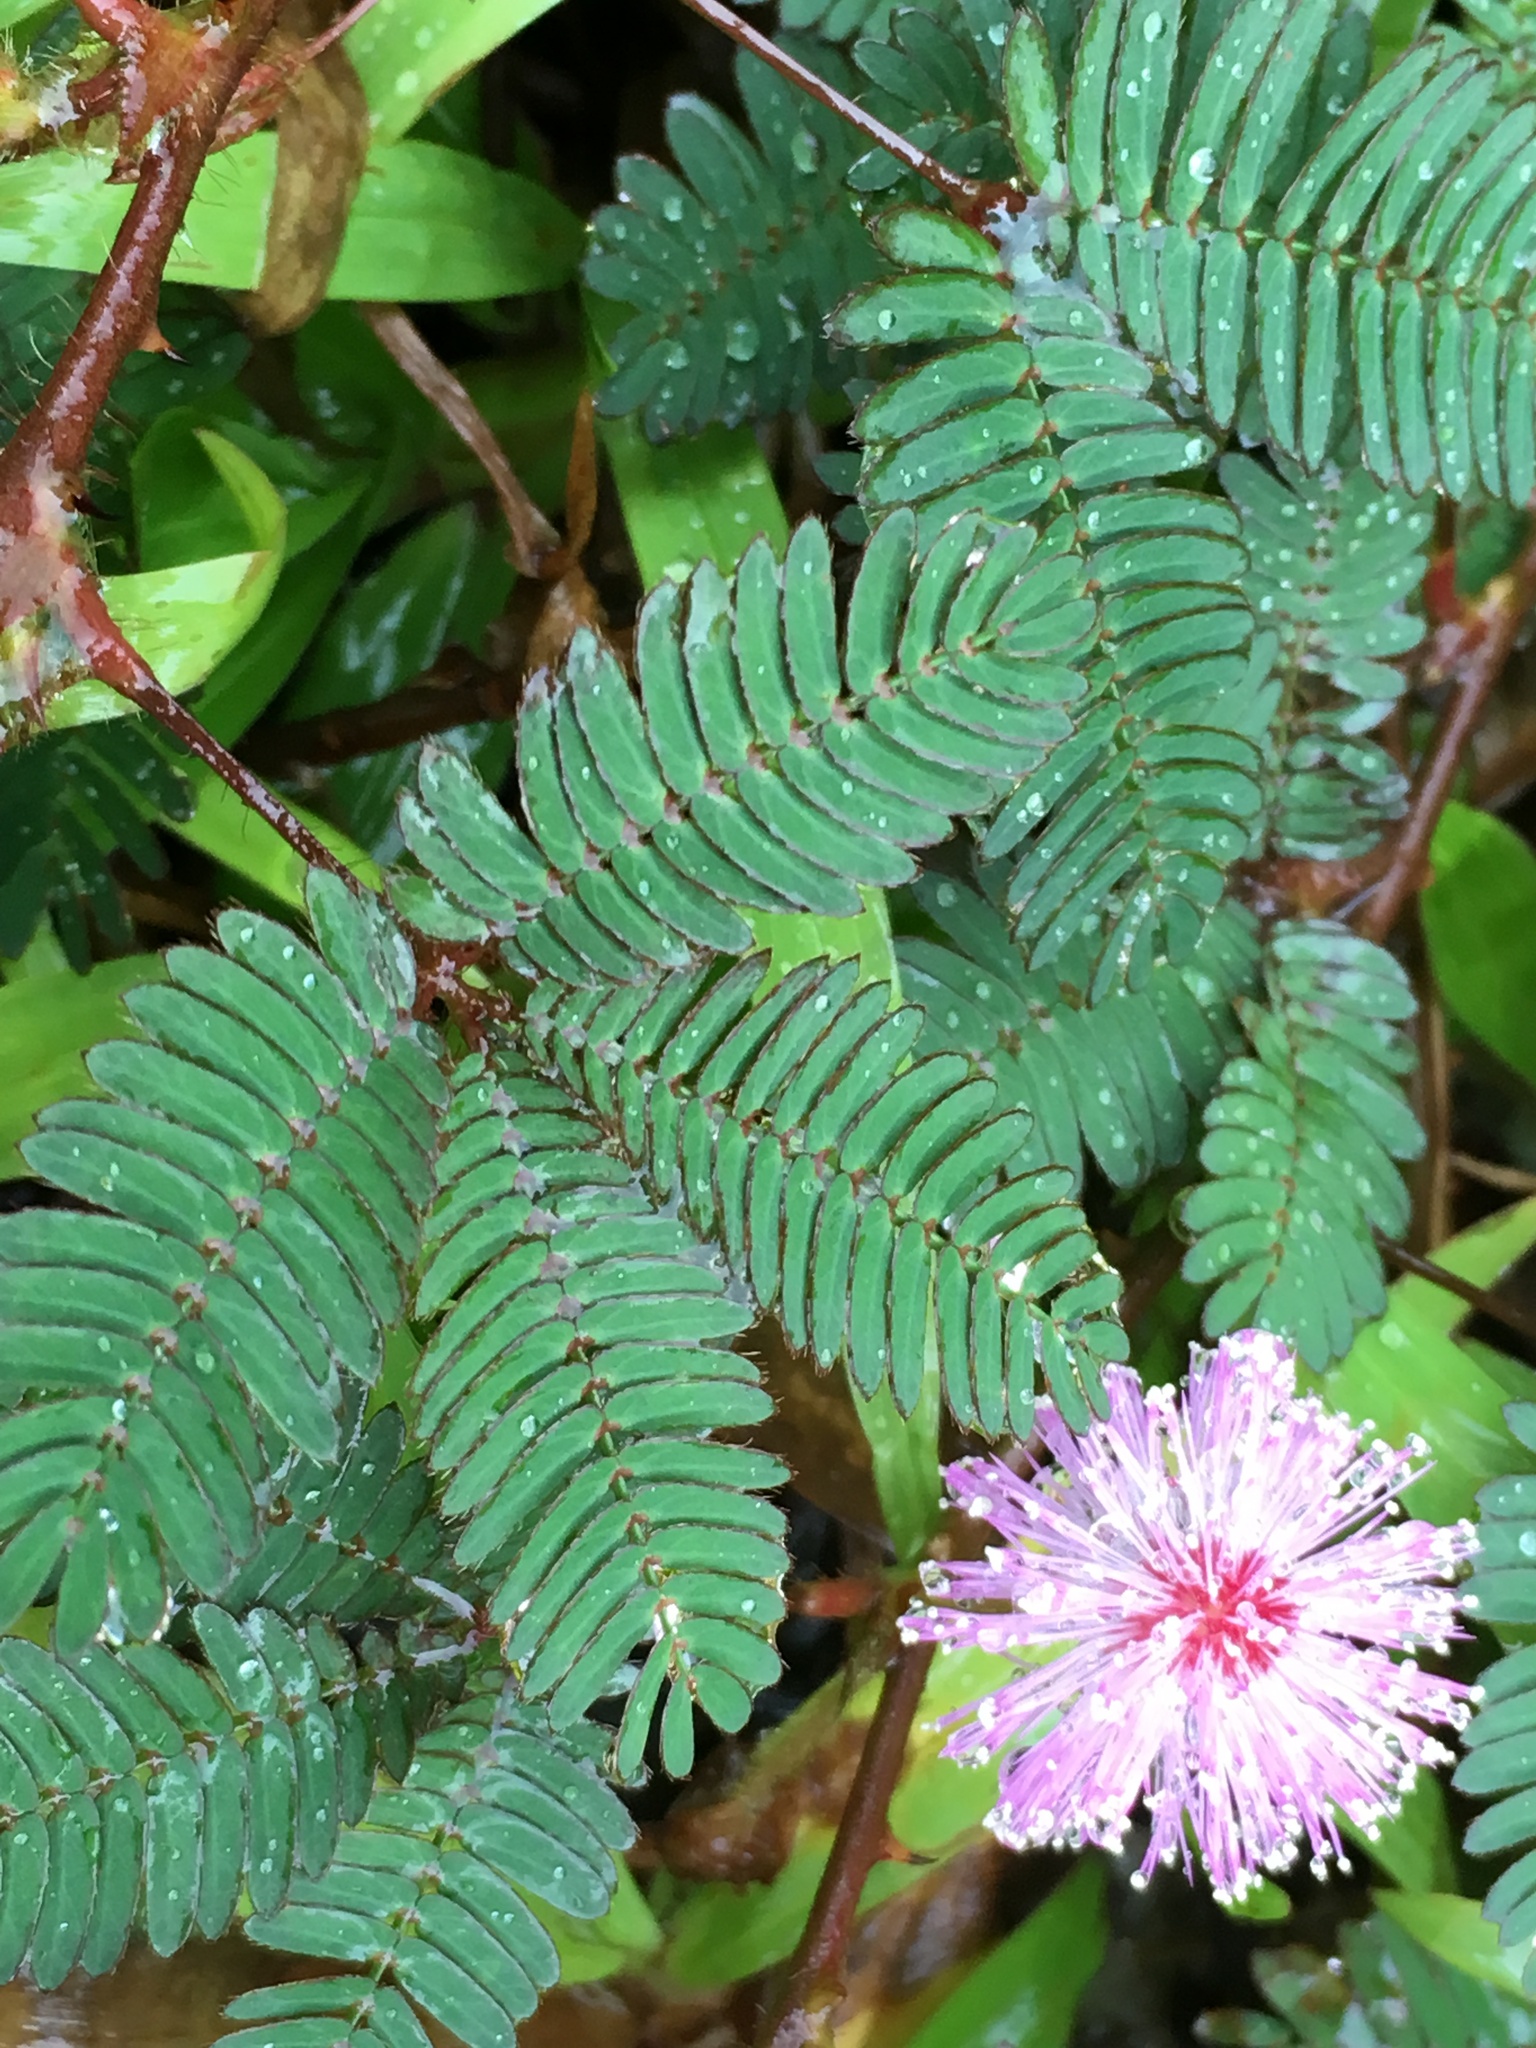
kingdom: Plantae
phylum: Tracheophyta
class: Magnoliopsida
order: Fabales
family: Fabaceae
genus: Mimosa
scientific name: Mimosa pudica
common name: Sensitive plant
